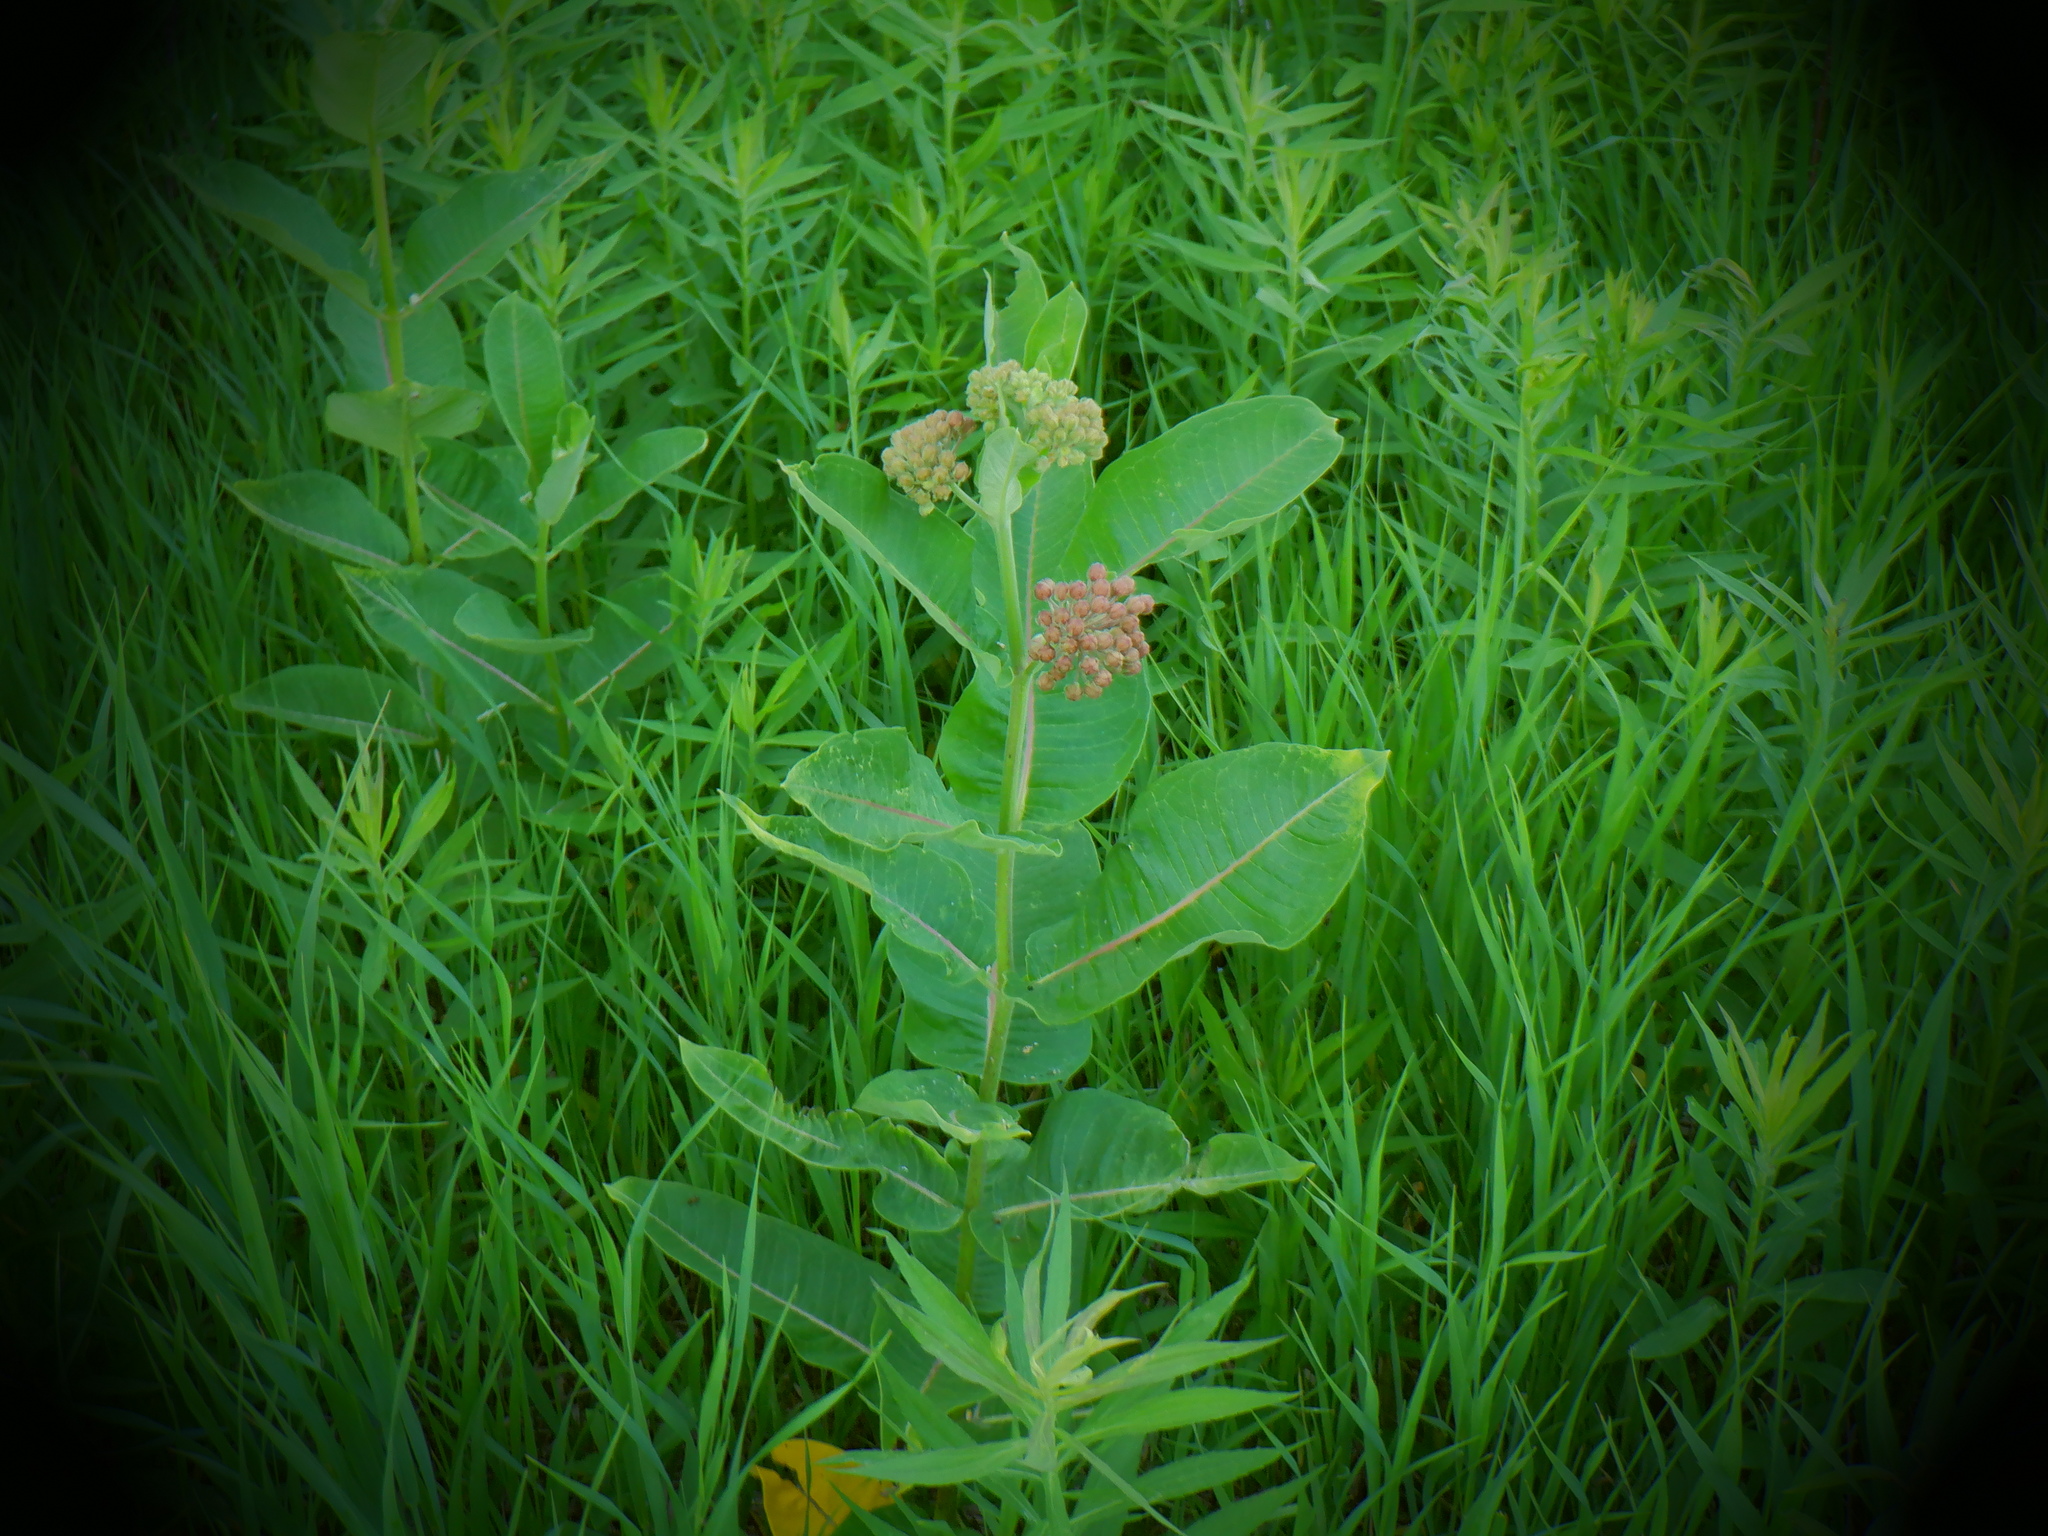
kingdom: Plantae
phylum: Tracheophyta
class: Magnoliopsida
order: Gentianales
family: Apocynaceae
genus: Asclepias
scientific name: Asclepias syriaca
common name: Common milkweed
